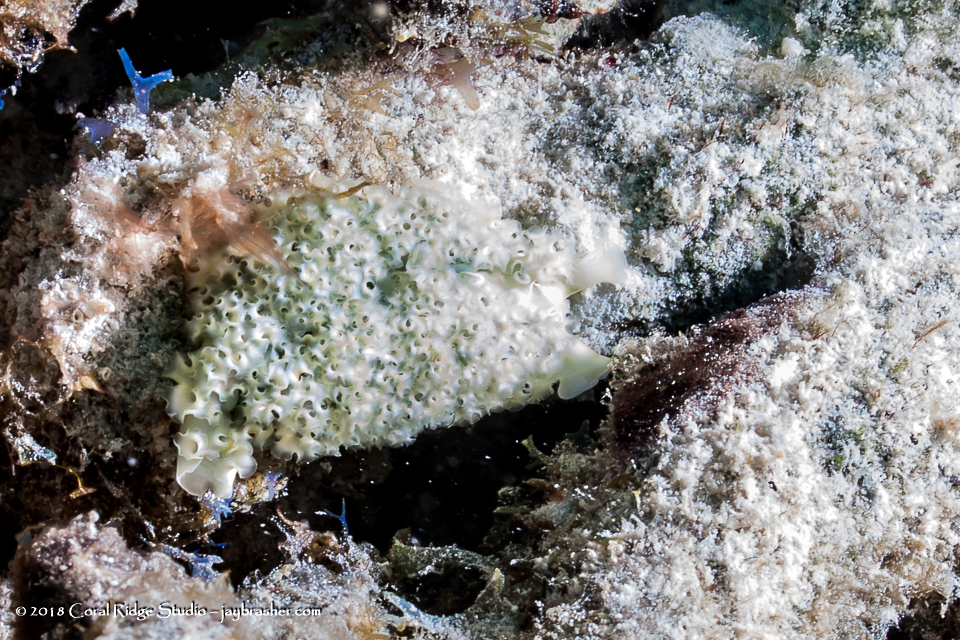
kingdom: Animalia
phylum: Mollusca
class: Gastropoda
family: Plakobranchidae
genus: Elysia
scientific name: Elysia crispata
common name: Lettuce slug
